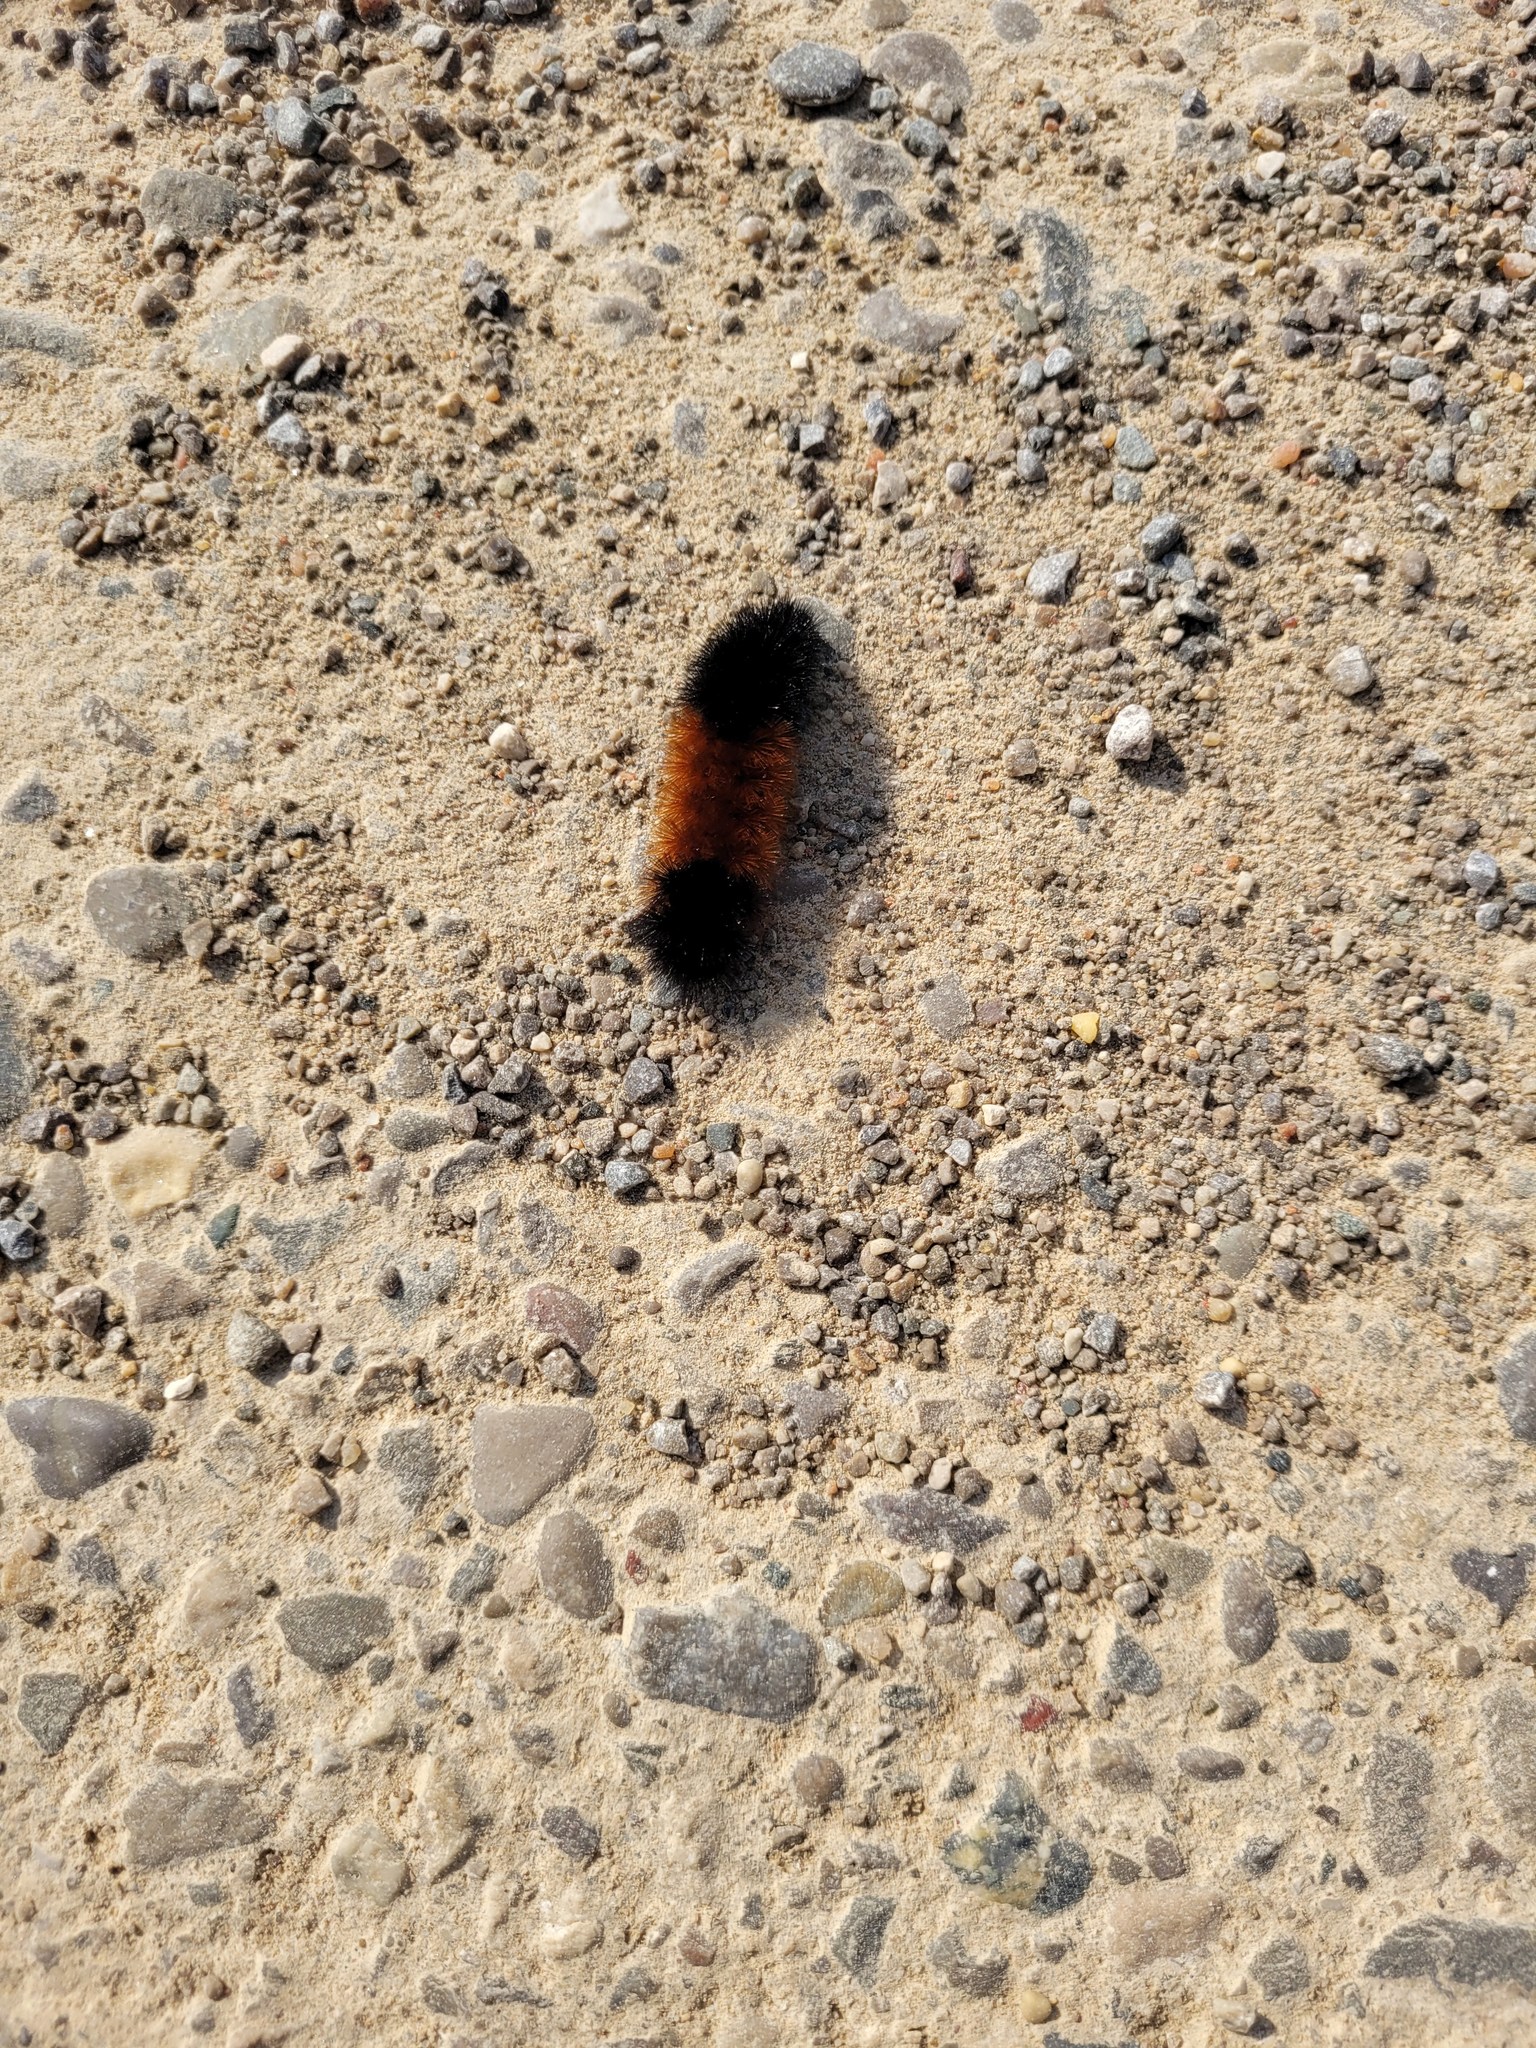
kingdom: Animalia
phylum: Arthropoda
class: Insecta
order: Lepidoptera
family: Erebidae
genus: Pyrrharctia
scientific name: Pyrrharctia isabella
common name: Isabella tiger moth
